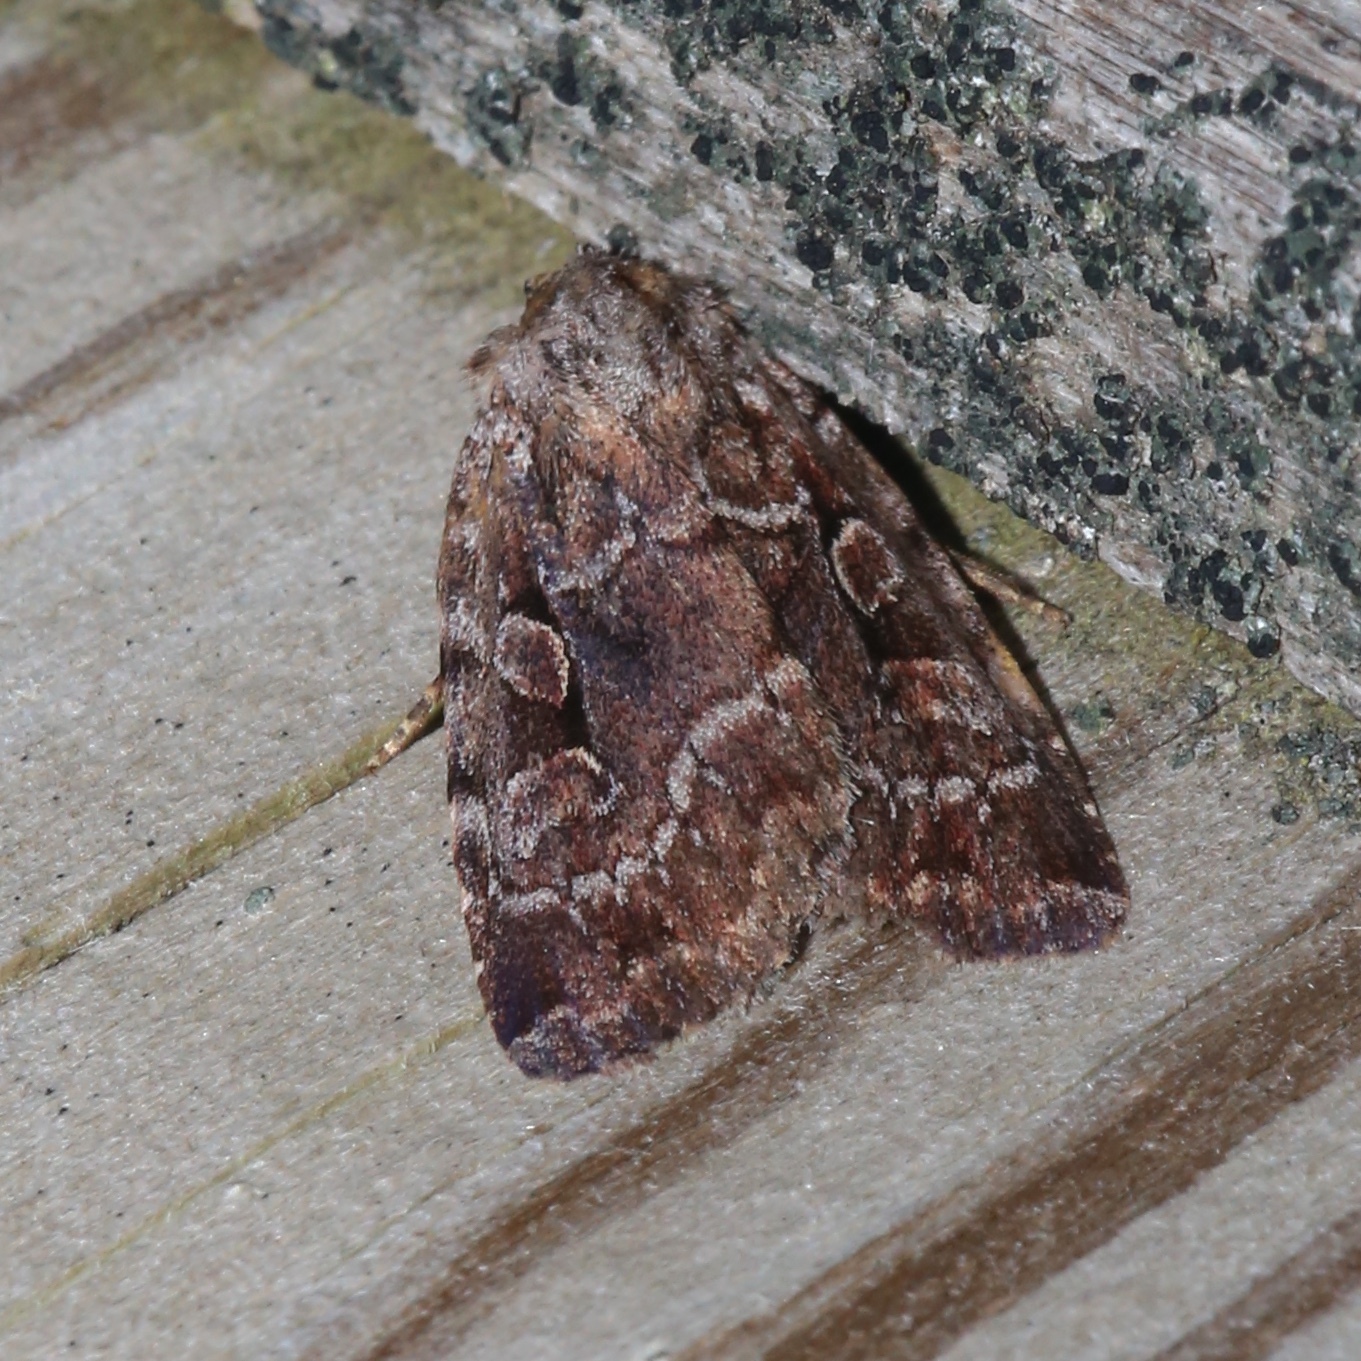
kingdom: Animalia
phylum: Arthropoda
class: Insecta
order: Lepidoptera
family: Noctuidae
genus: Xestia
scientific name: Xestia dilucida
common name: Dull reddish dart
